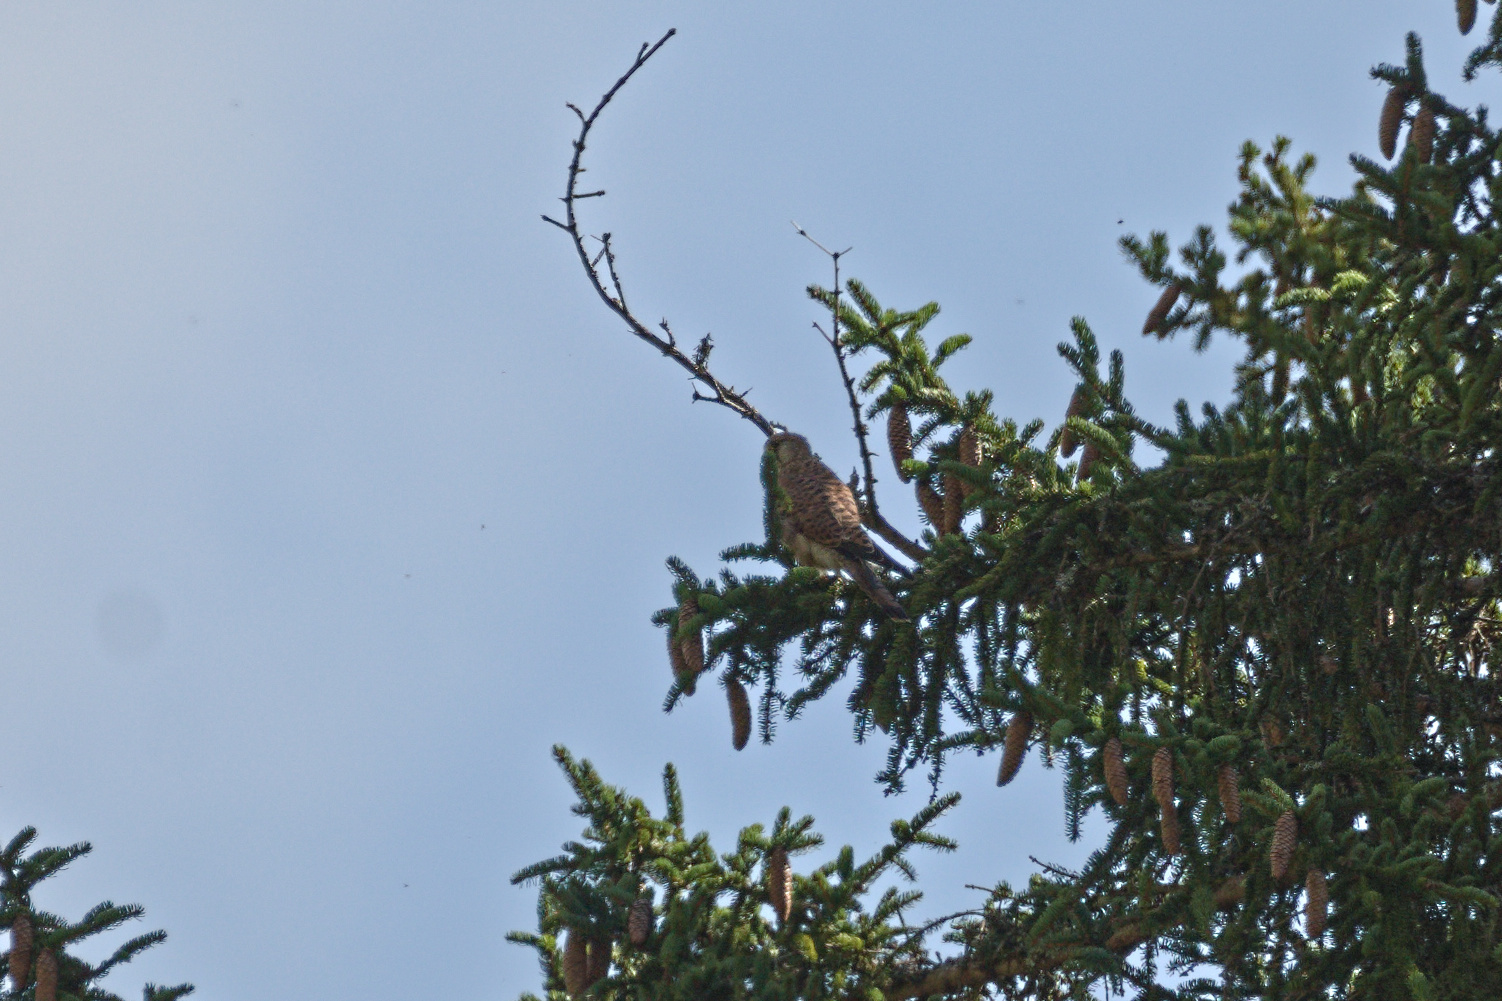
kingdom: Animalia
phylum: Chordata
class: Aves
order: Falconiformes
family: Falconidae
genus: Falco
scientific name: Falco tinnunculus
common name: Common kestrel
